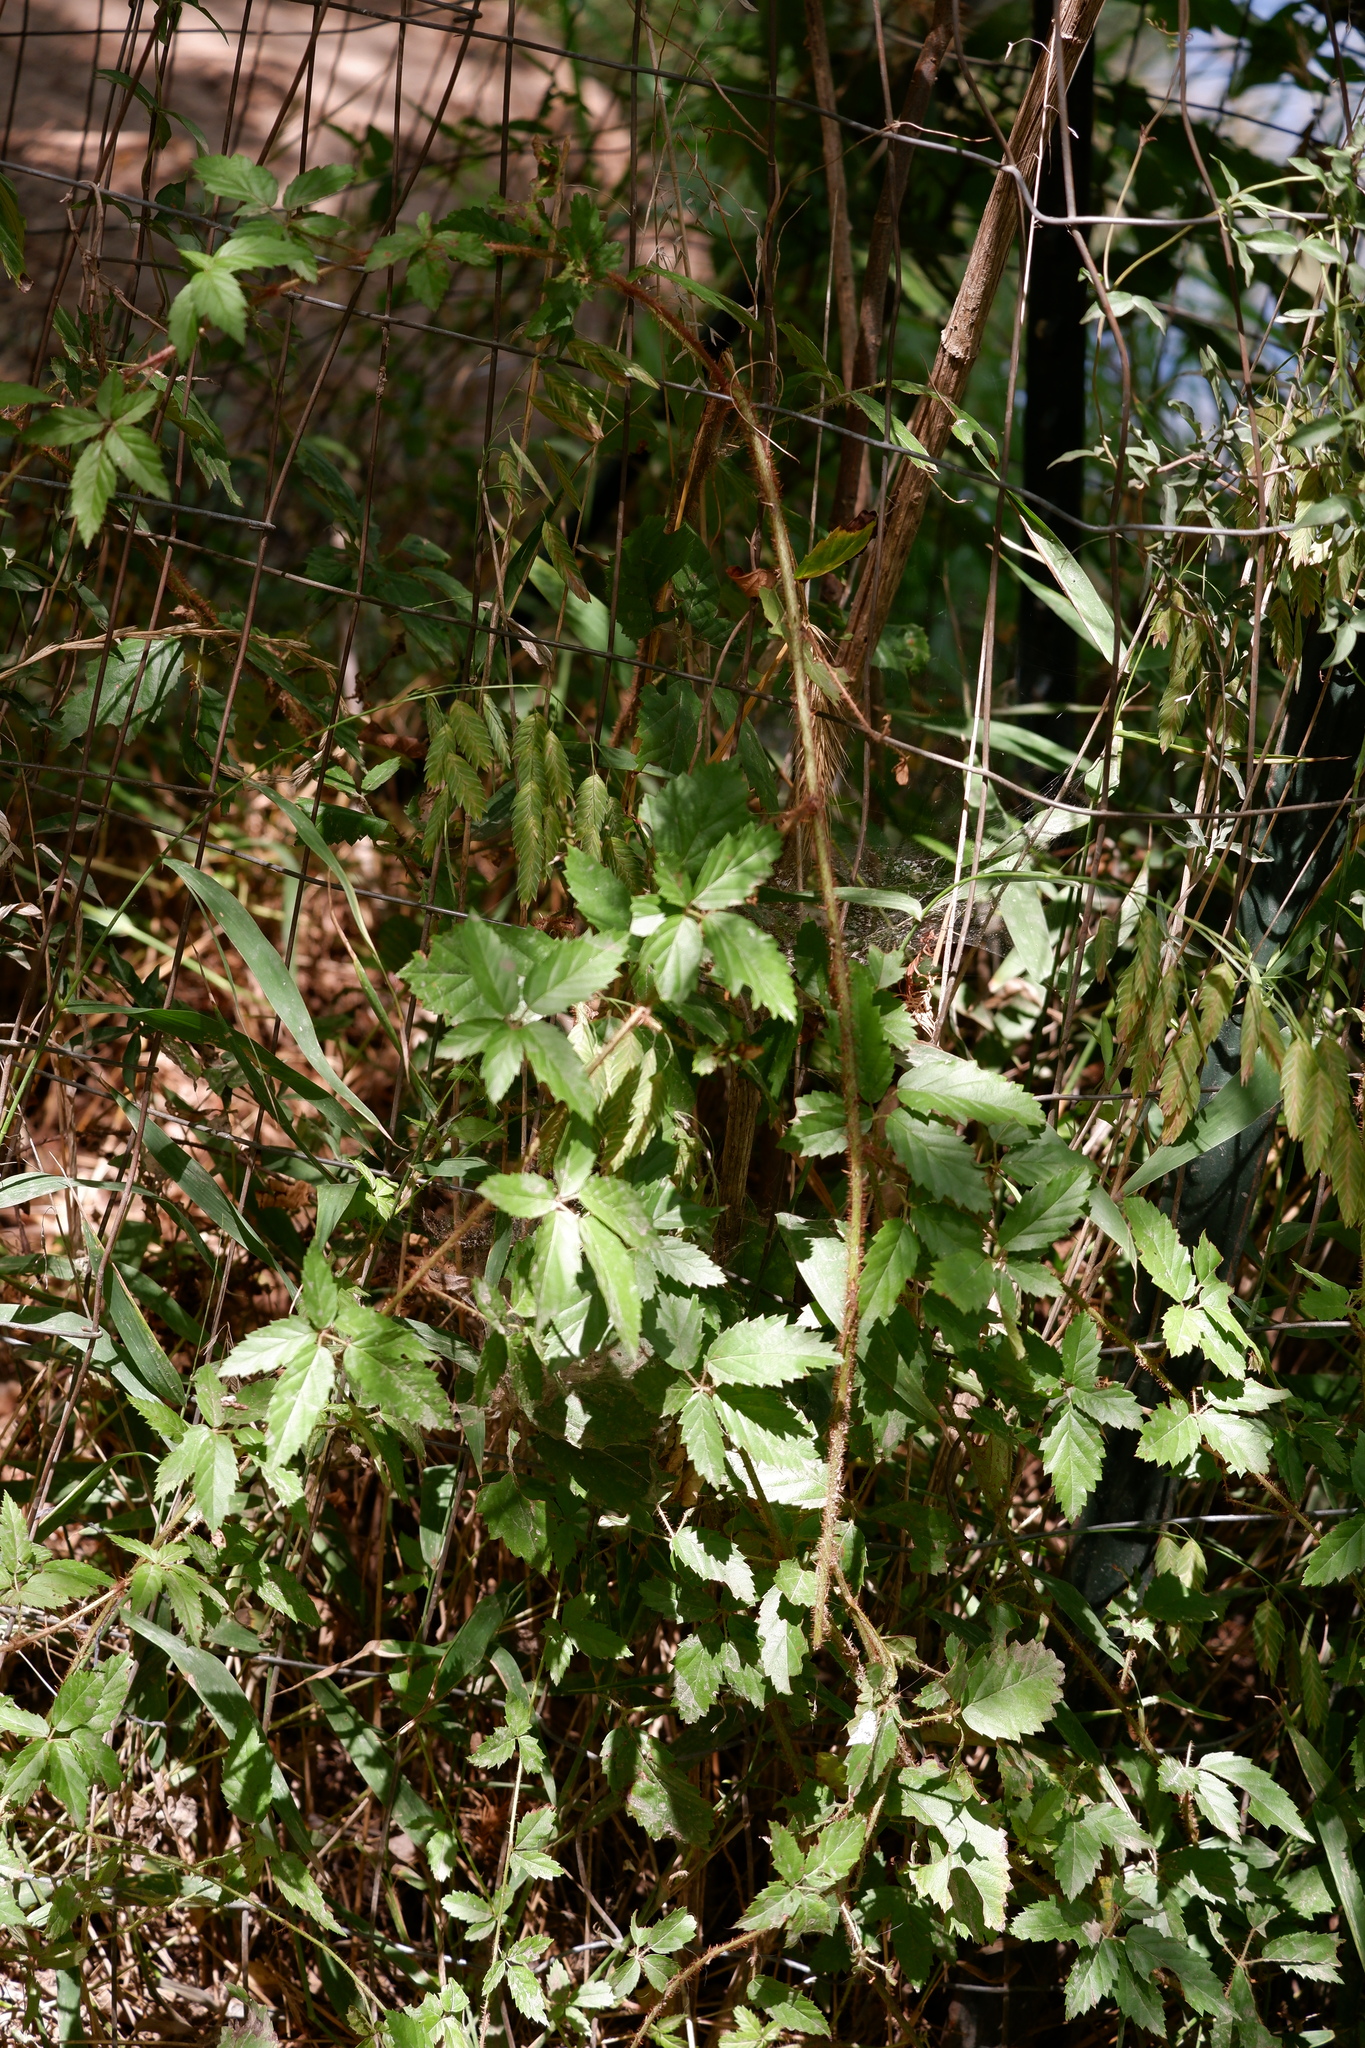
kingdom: Plantae
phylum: Tracheophyta
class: Magnoliopsida
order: Rosales
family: Rosaceae
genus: Rubus
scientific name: Rubus trivialis
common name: Southern dewberry
